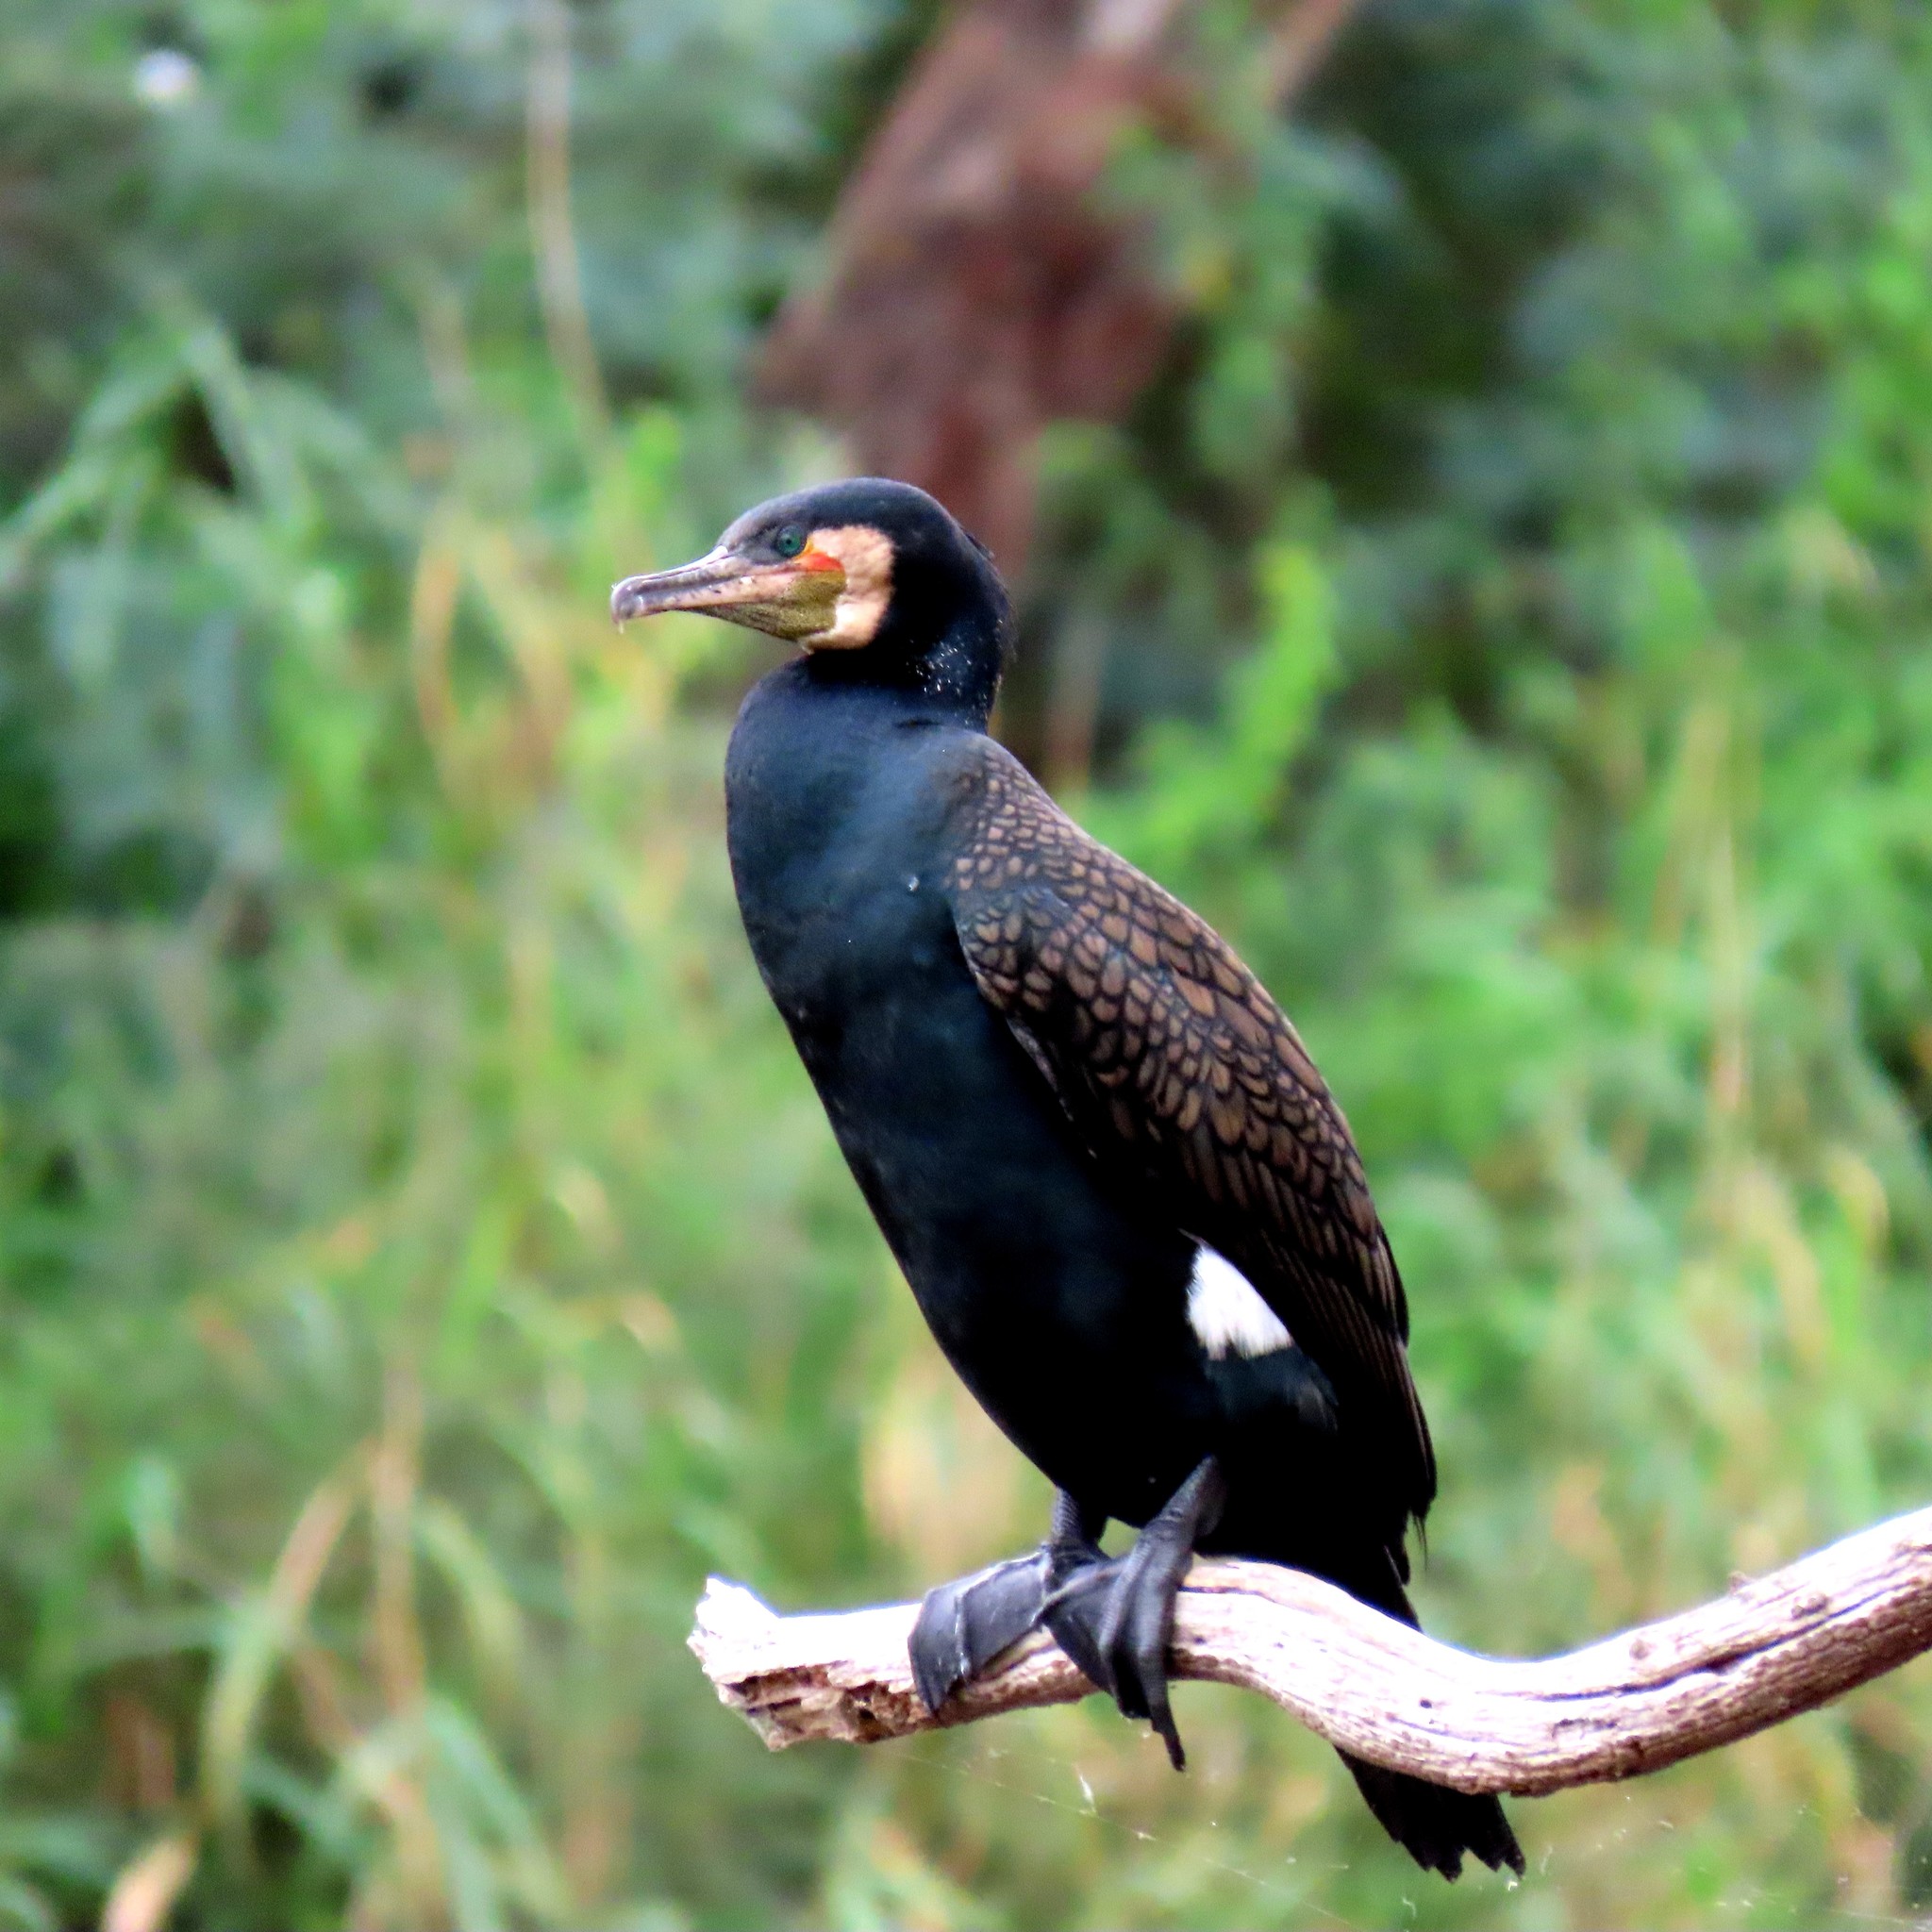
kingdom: Animalia
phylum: Chordata
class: Aves
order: Suliformes
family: Phalacrocoracidae
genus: Phalacrocorax
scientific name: Phalacrocorax carbo
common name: Great cormorant
